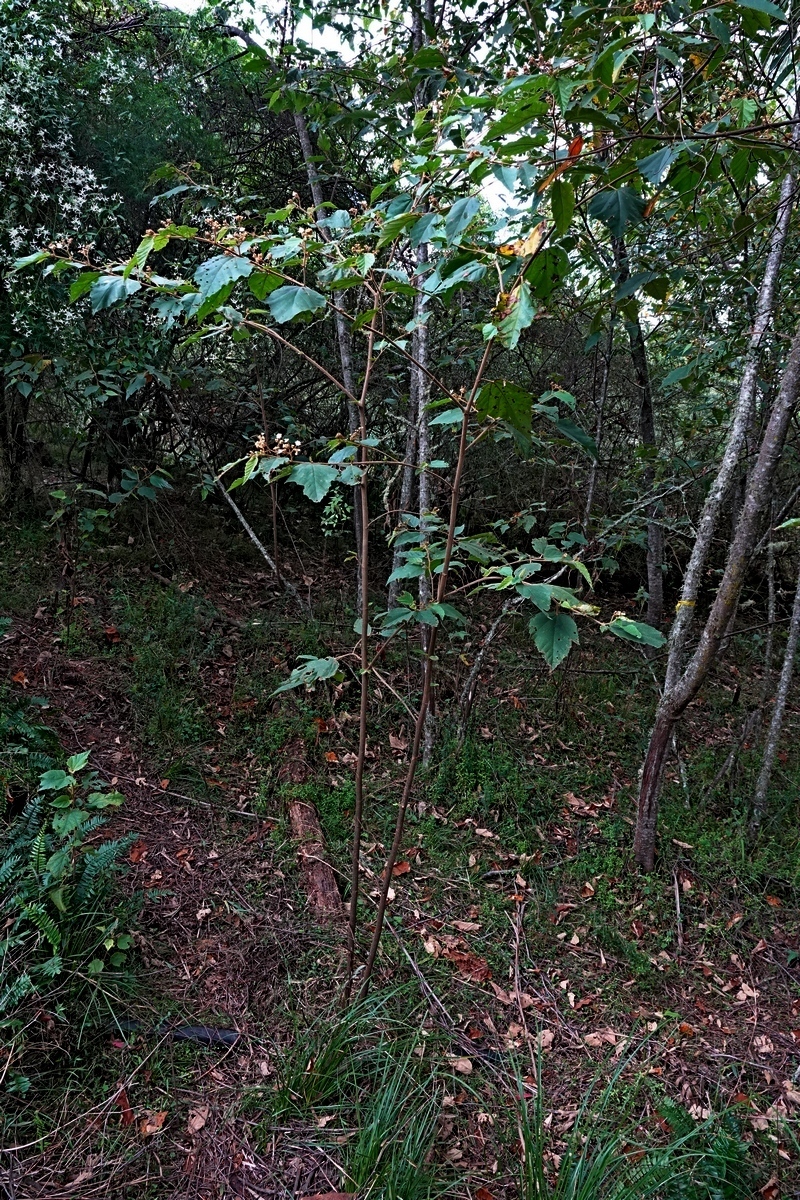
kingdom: Plantae
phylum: Tracheophyta
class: Magnoliopsida
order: Malvales
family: Malvaceae
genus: Androcalva
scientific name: Androcalva rossii
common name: Native hemp
